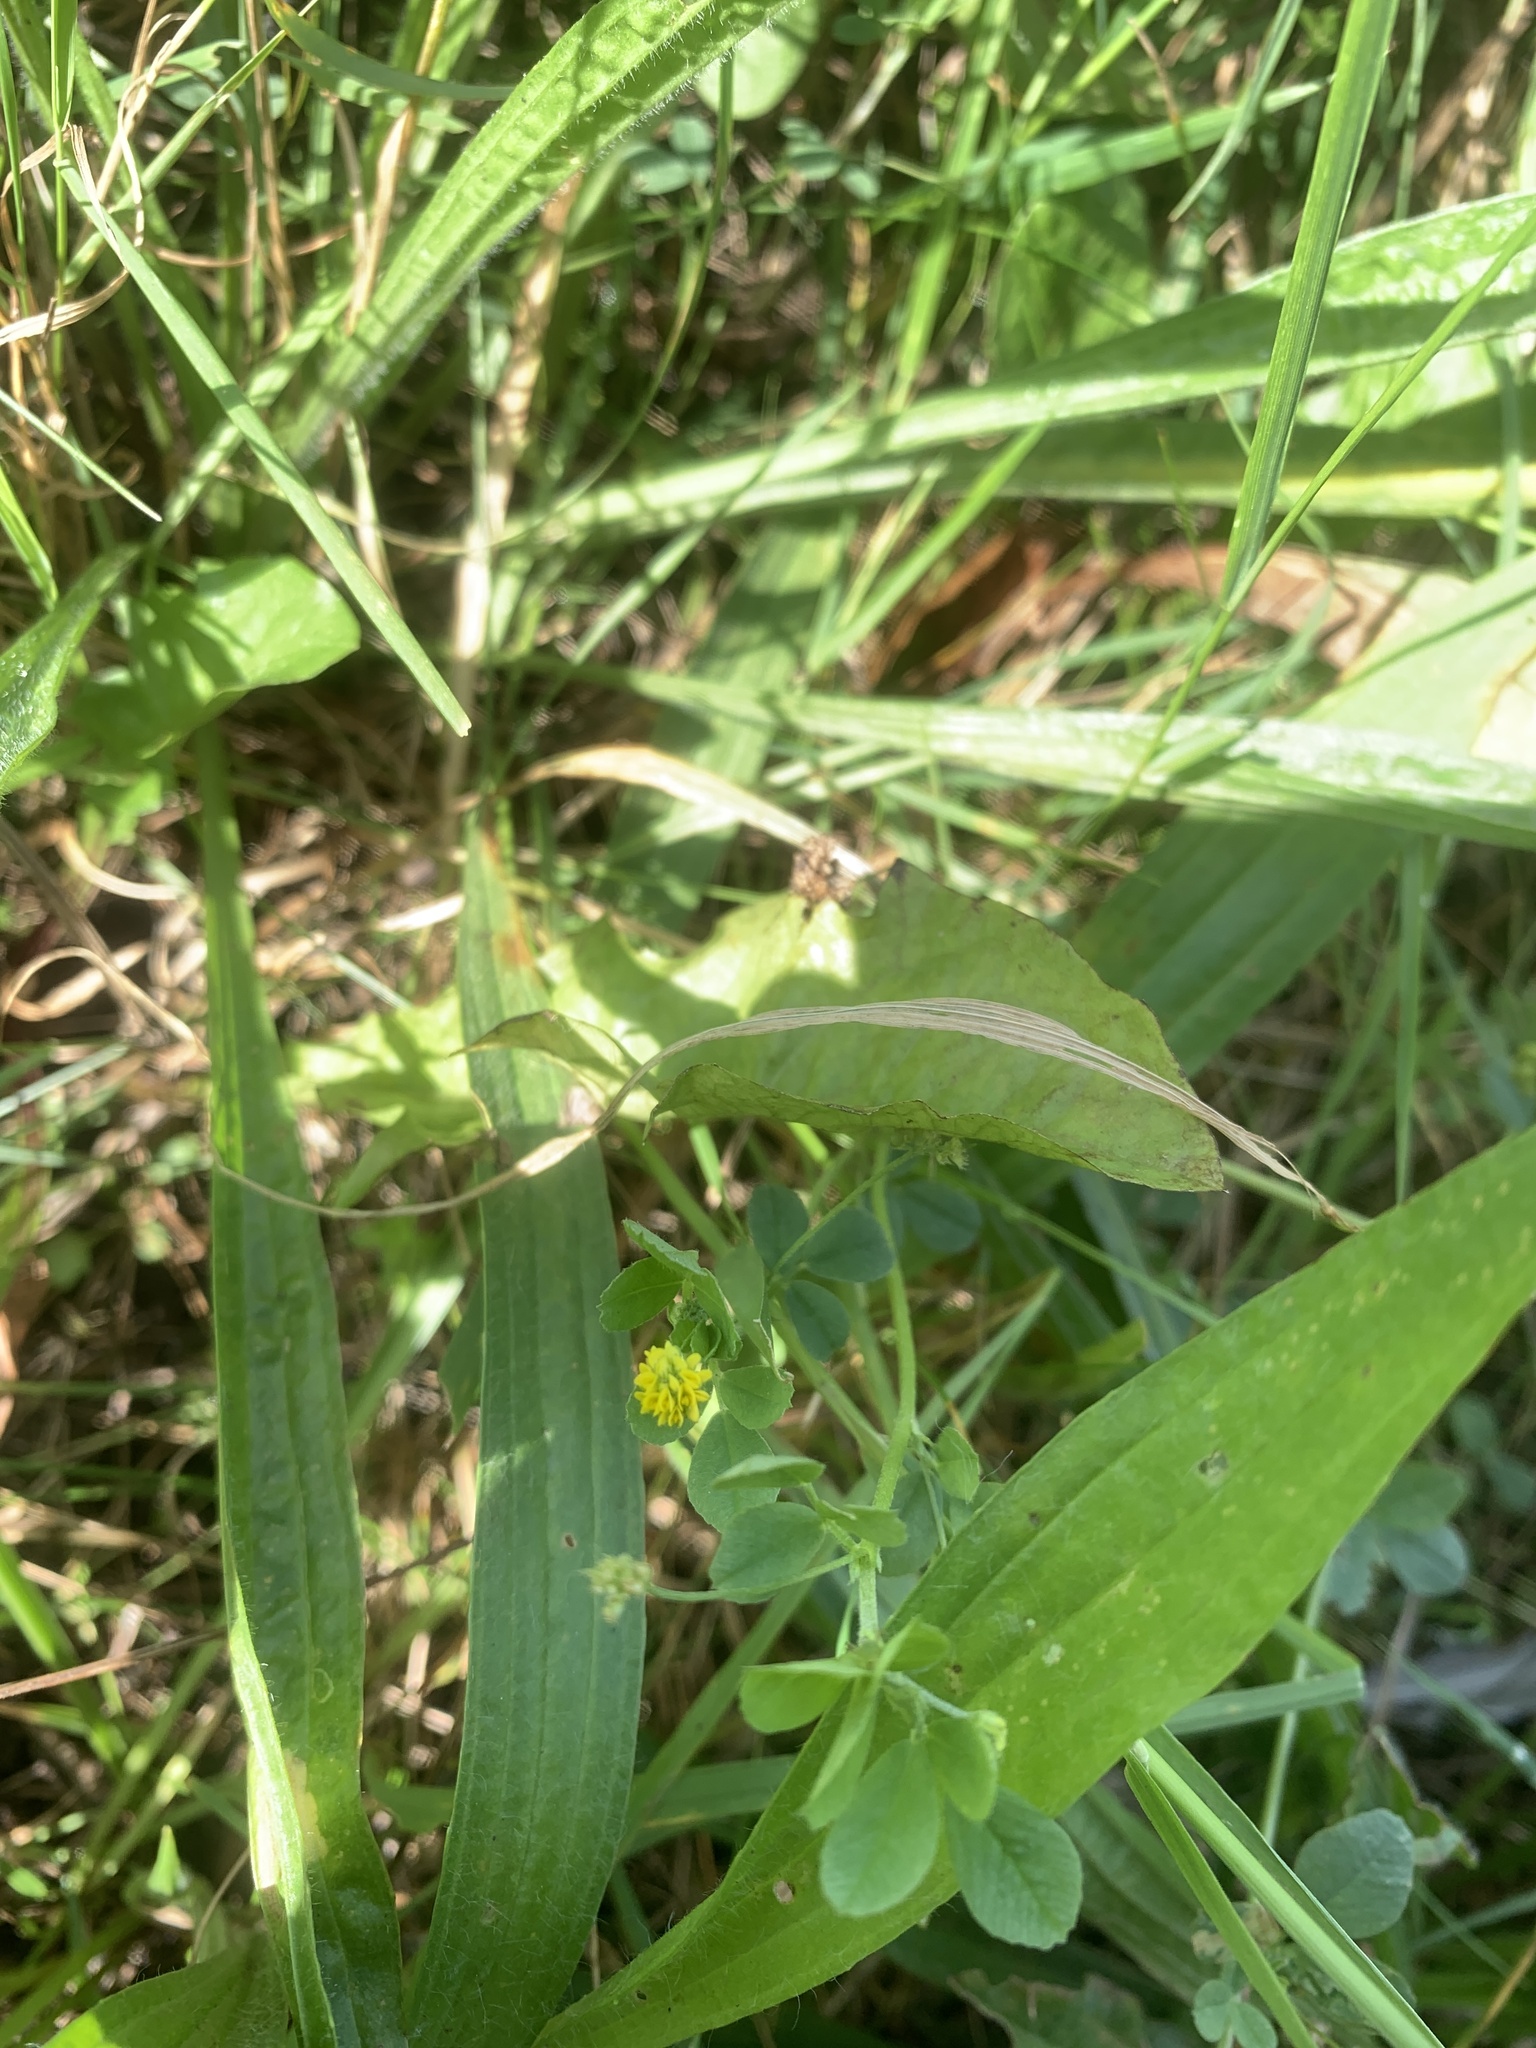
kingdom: Plantae
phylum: Tracheophyta
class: Magnoliopsida
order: Fabales
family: Fabaceae
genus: Medicago
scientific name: Medicago lupulina
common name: Black medick
